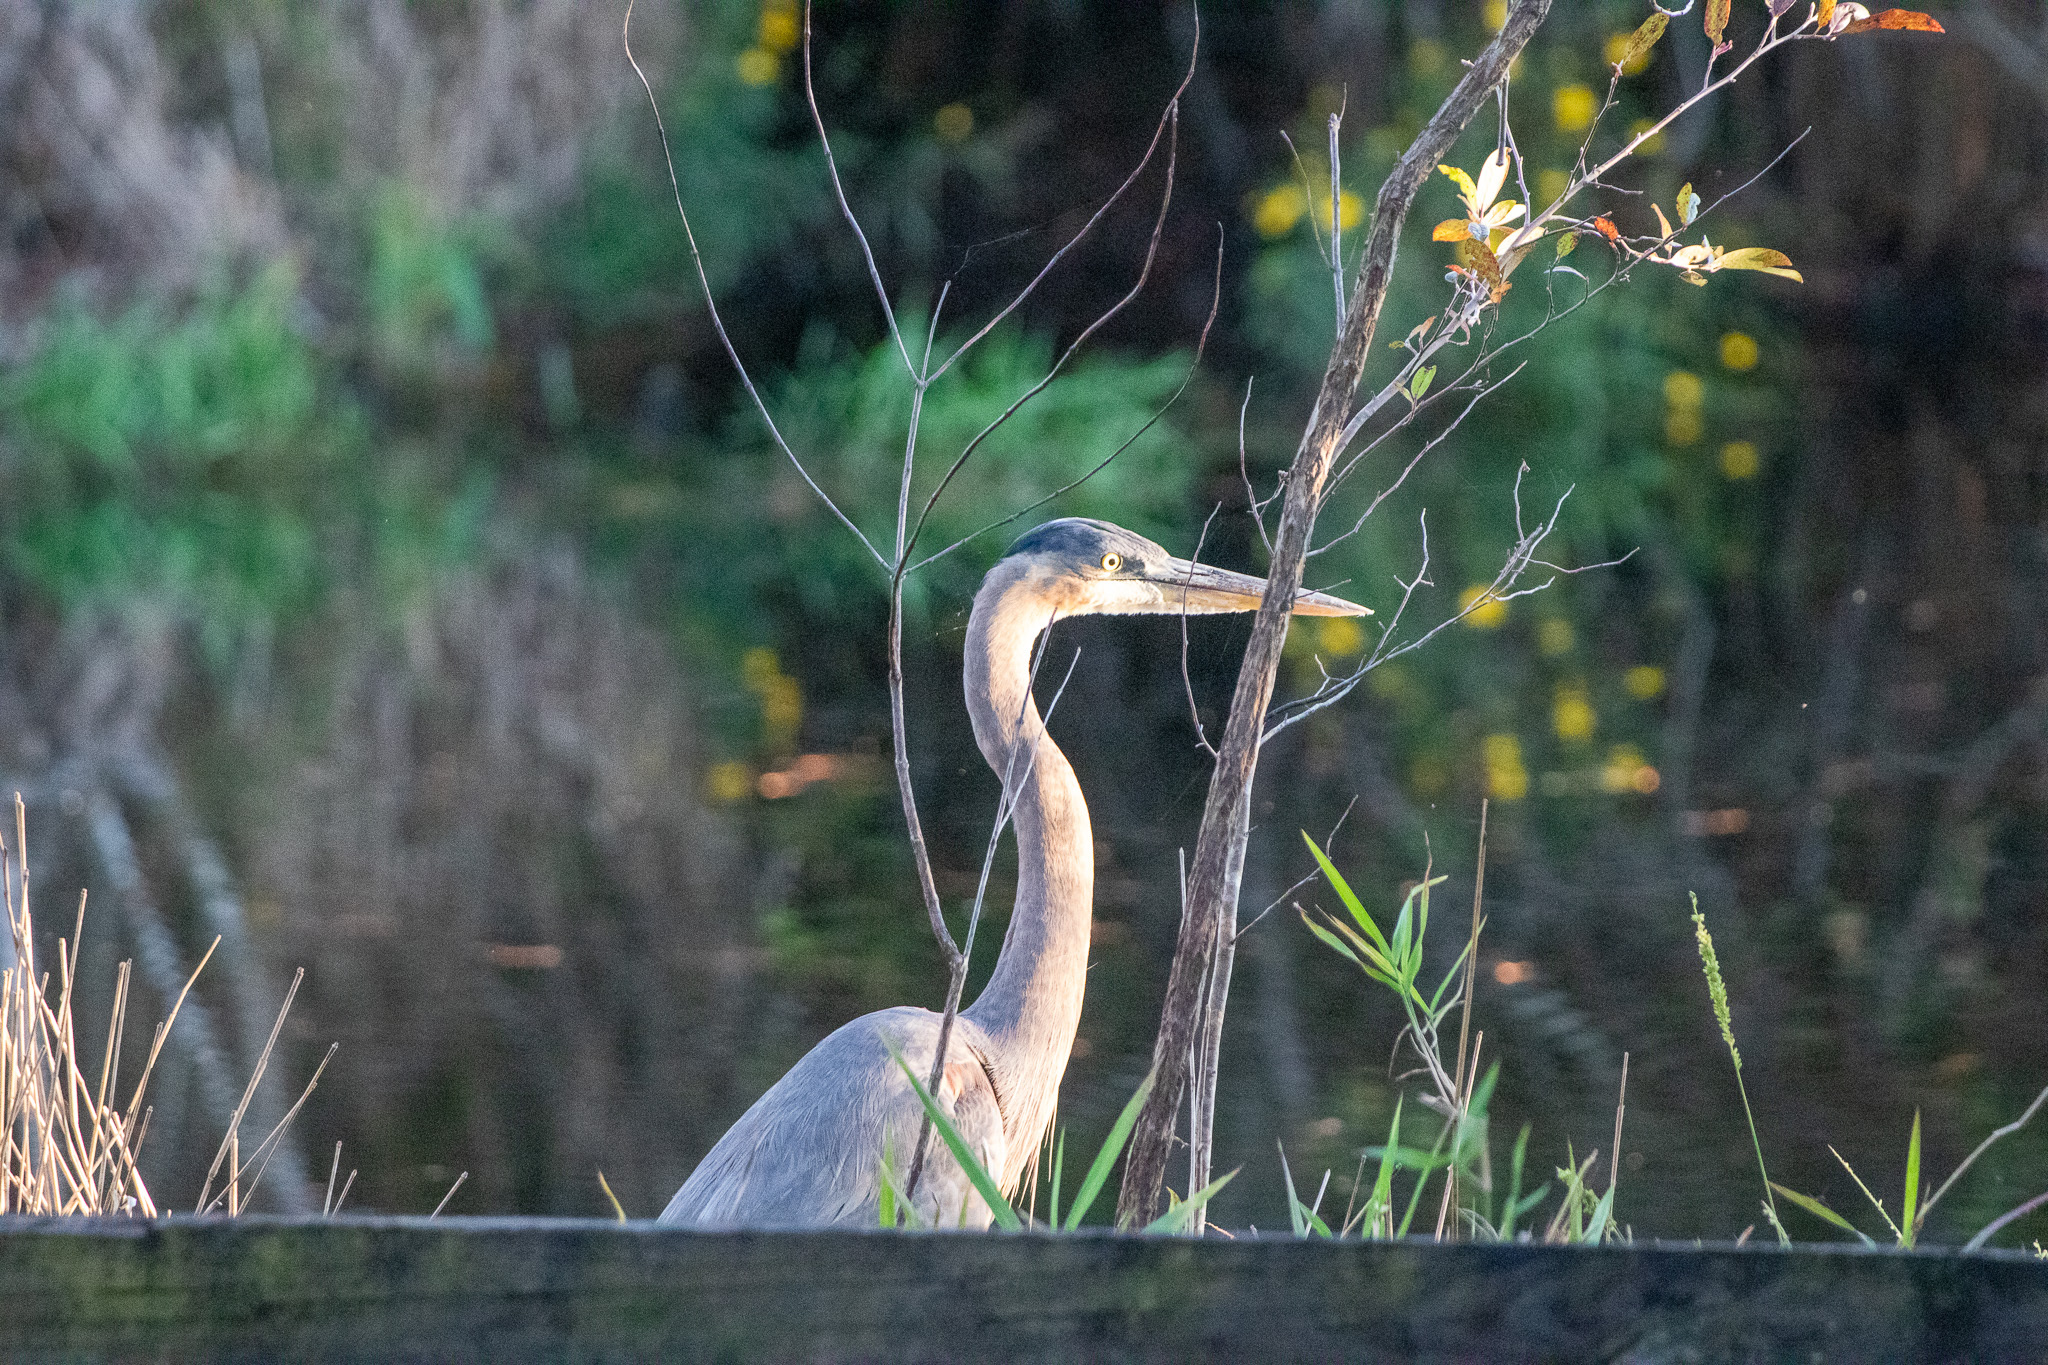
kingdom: Animalia
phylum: Chordata
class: Aves
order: Pelecaniformes
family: Ardeidae
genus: Ardea
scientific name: Ardea herodias
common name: Great blue heron
